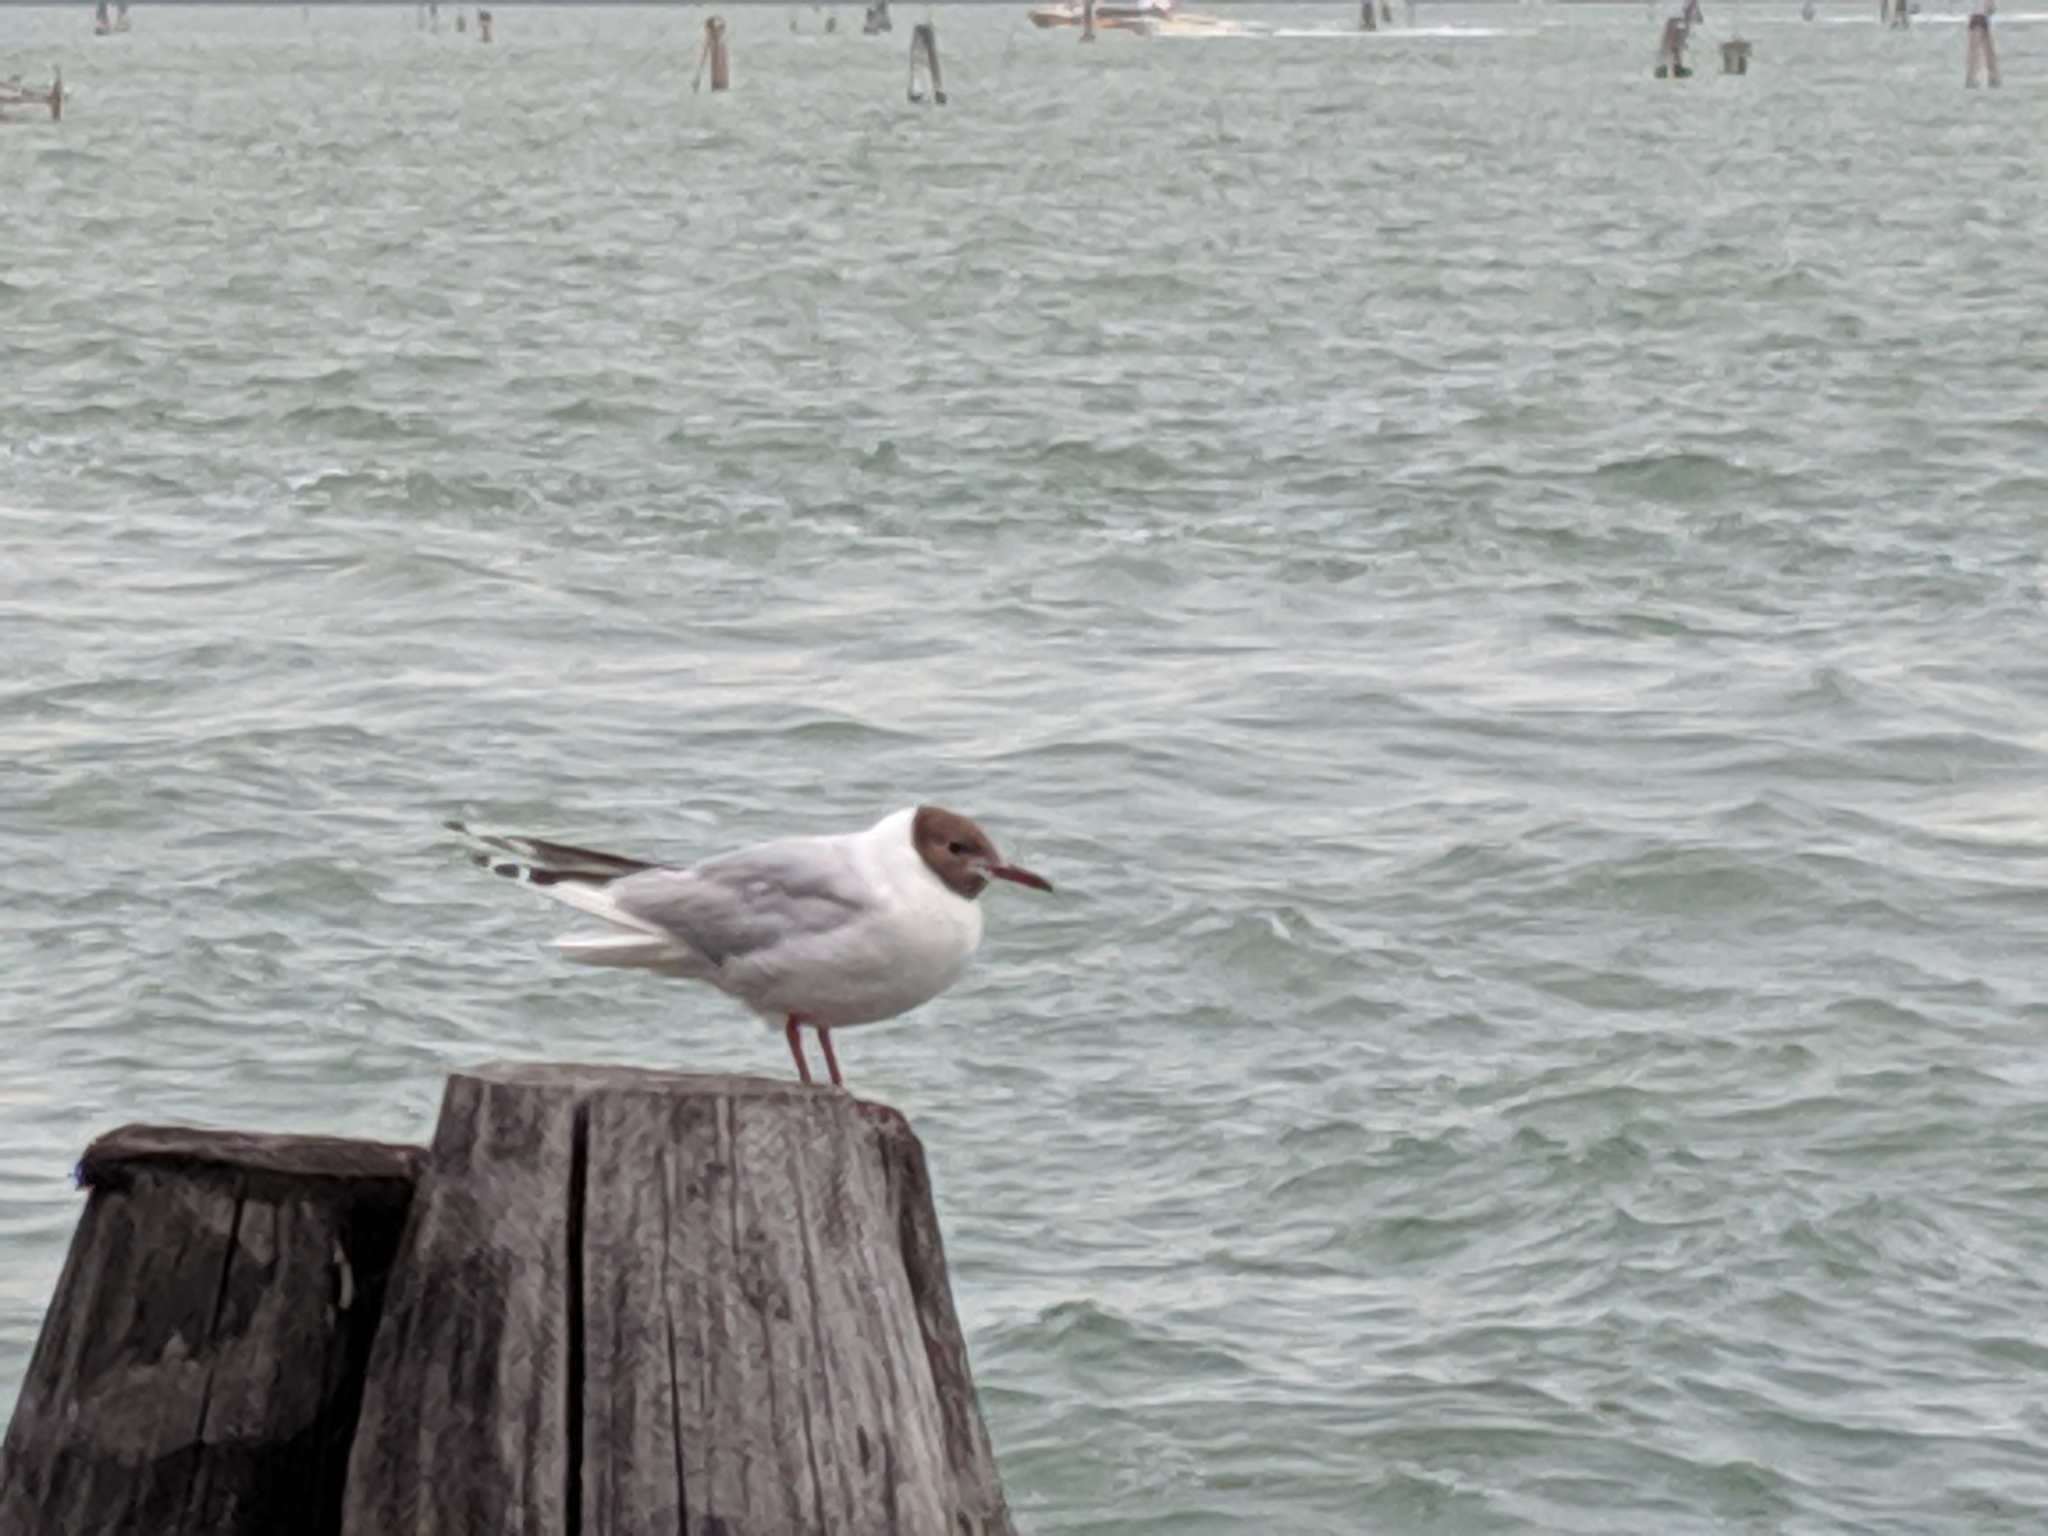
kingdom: Animalia
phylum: Chordata
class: Aves
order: Charadriiformes
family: Laridae
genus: Chroicocephalus
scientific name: Chroicocephalus ridibundus
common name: Black-headed gull
